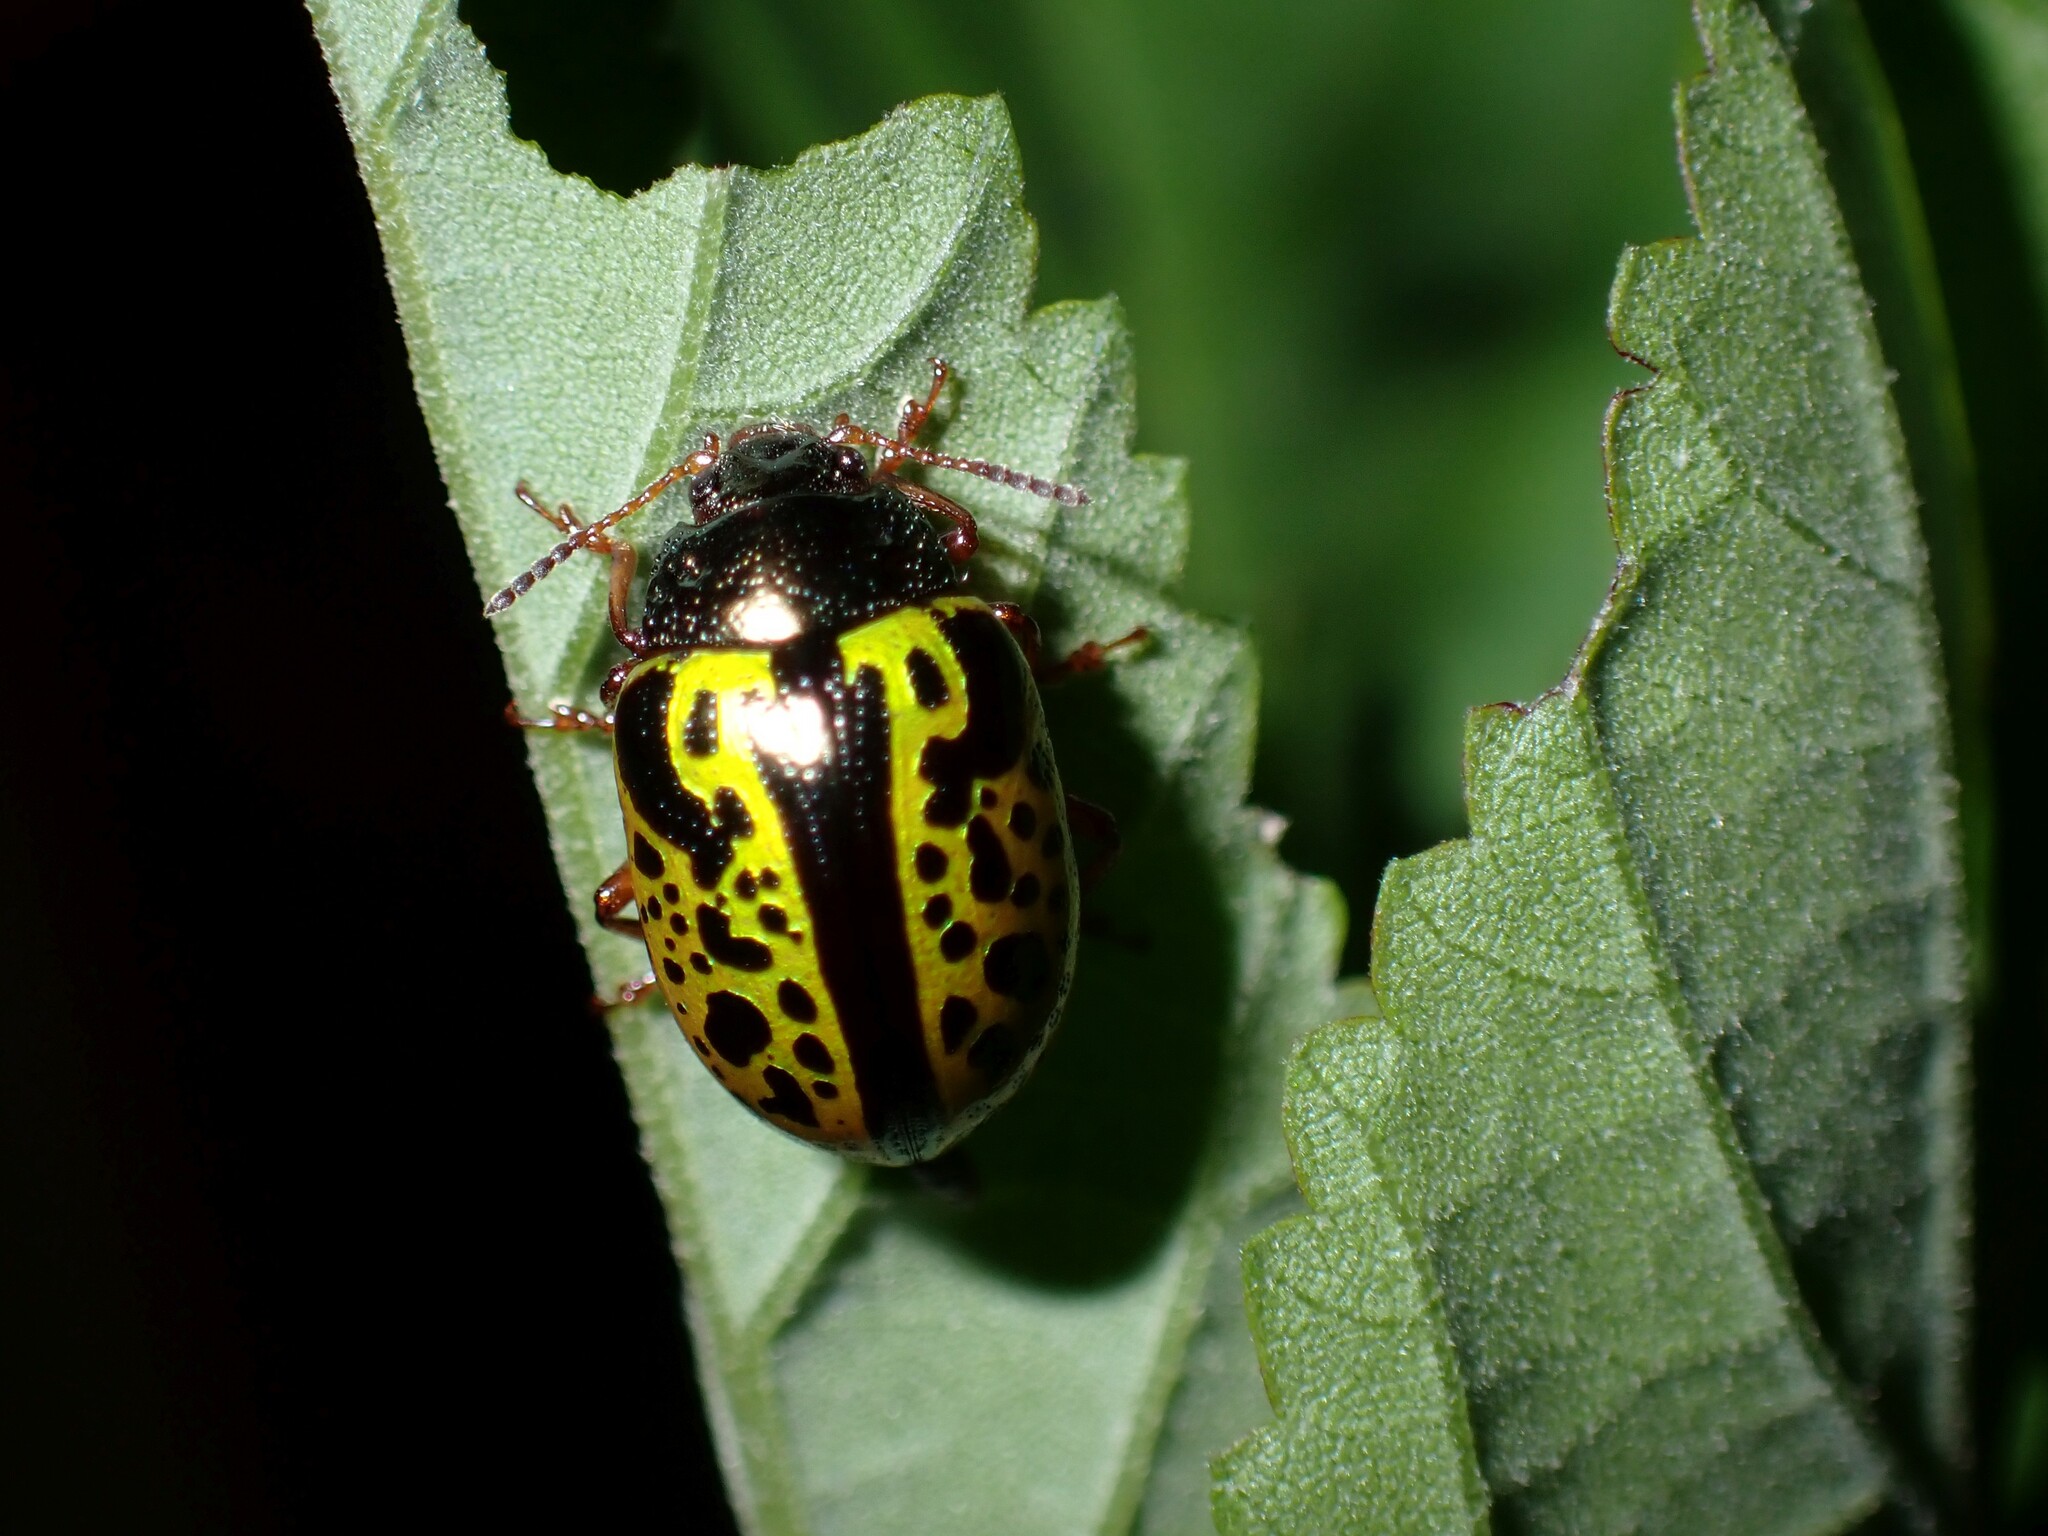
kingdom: Animalia
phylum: Arthropoda
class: Insecta
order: Coleoptera
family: Chrysomelidae
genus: Calligrapha
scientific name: Calligrapha pantherina
